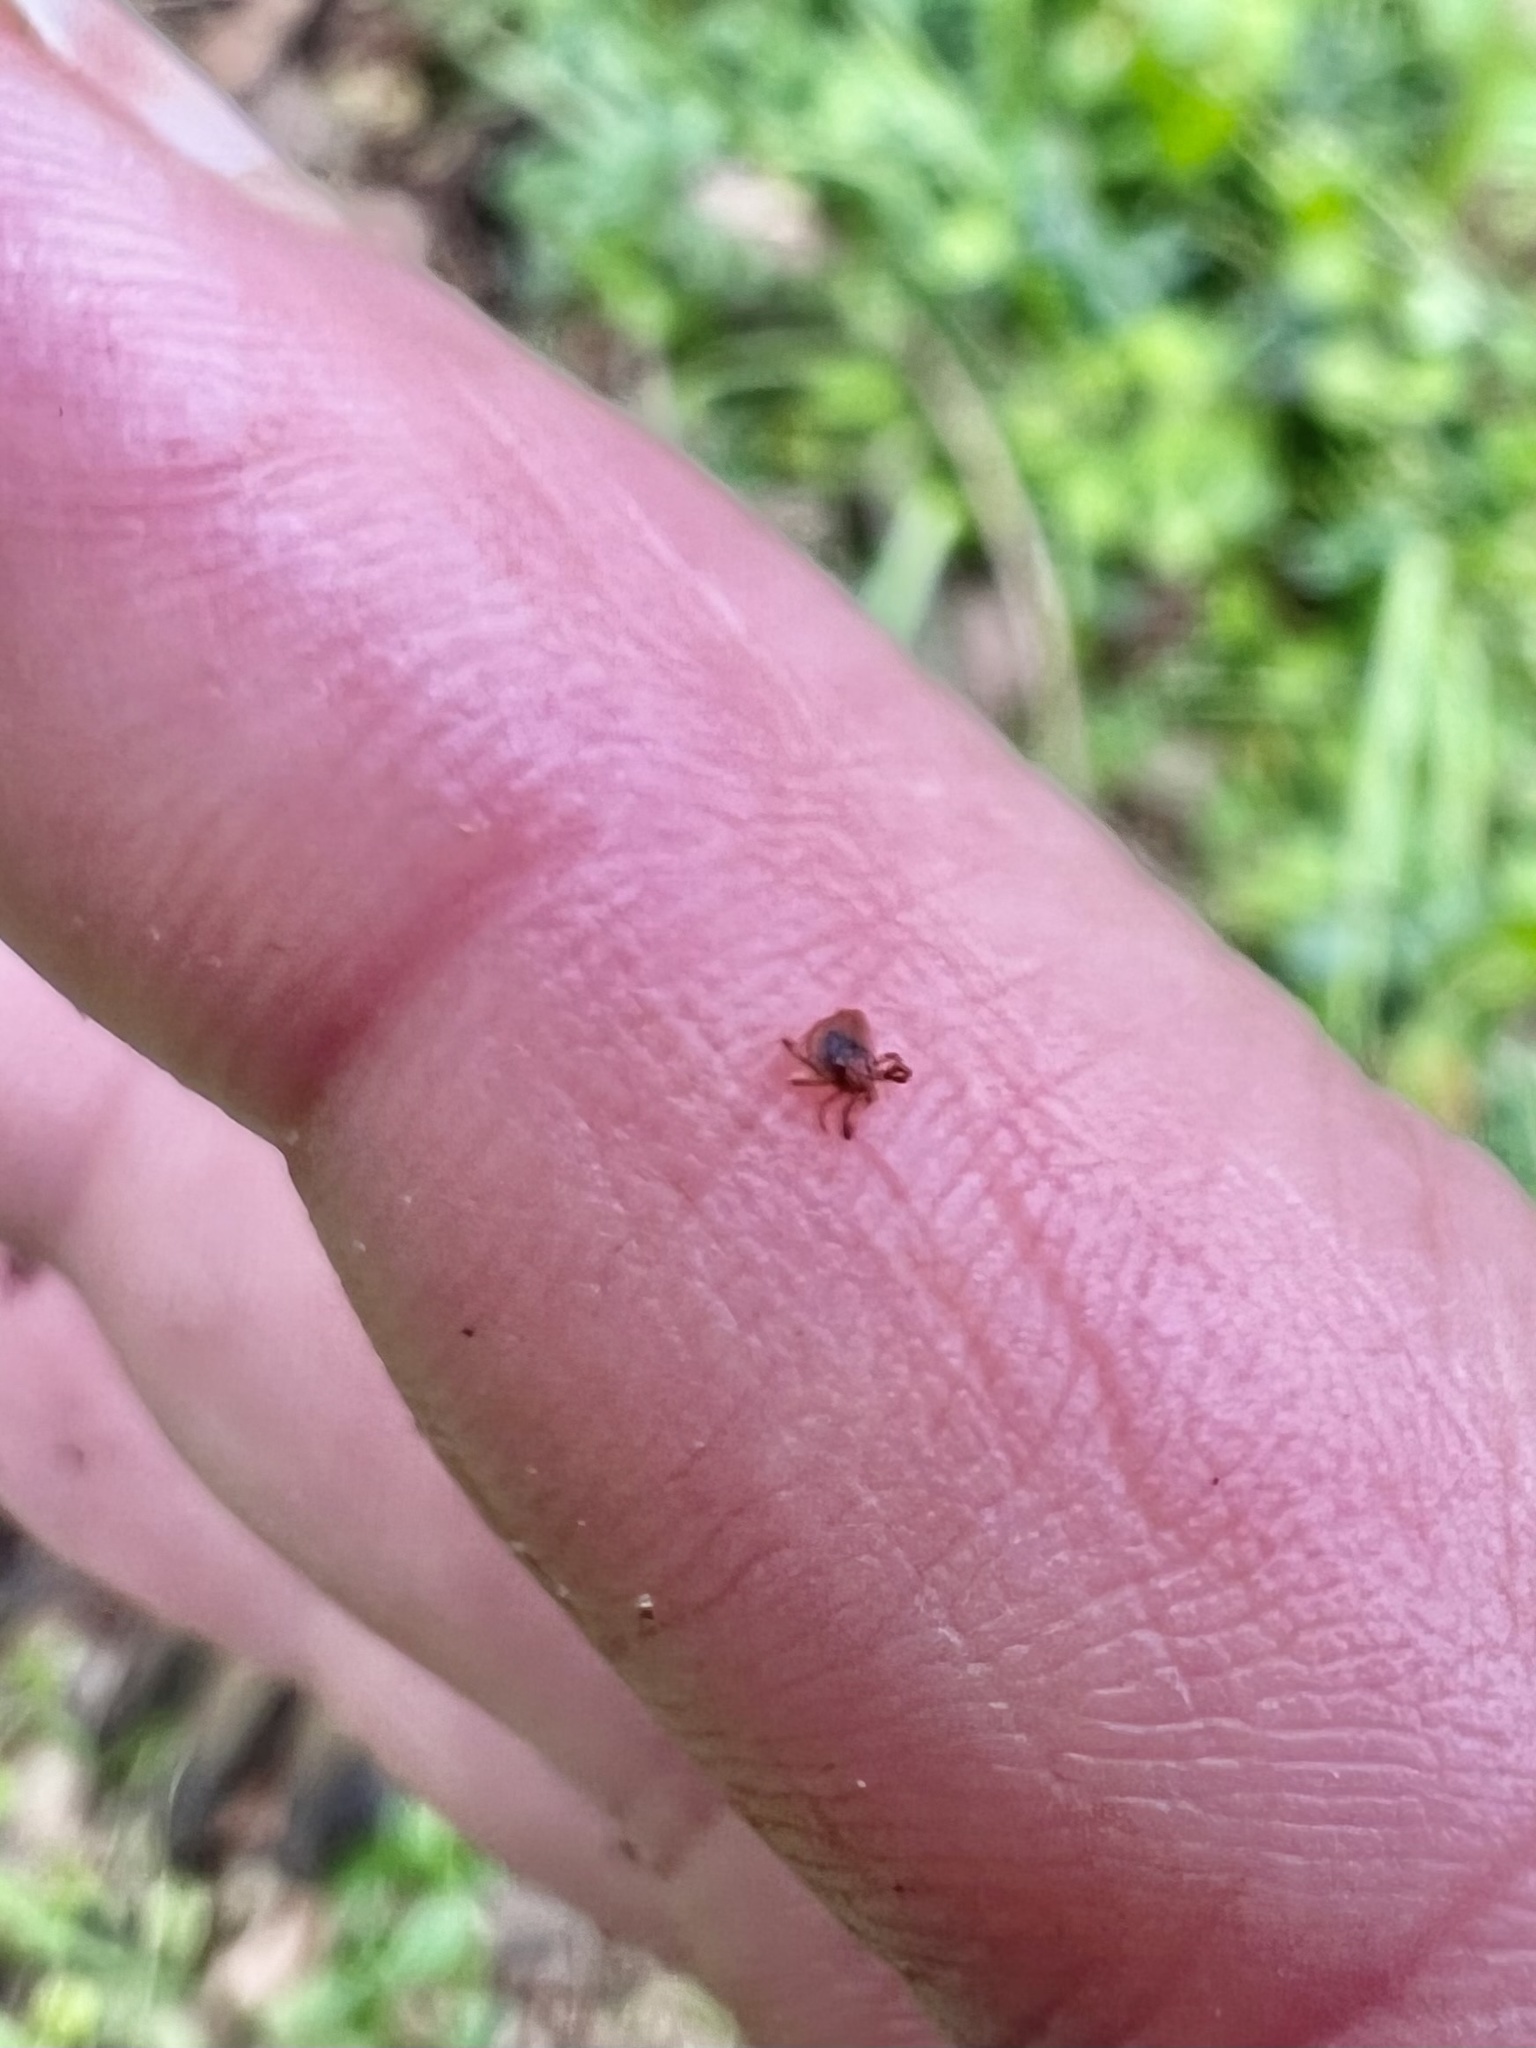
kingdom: Animalia
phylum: Arthropoda
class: Arachnida
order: Ixodida
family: Ixodidae
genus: Ixodes
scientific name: Ixodes scapularis
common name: Black legged tick
